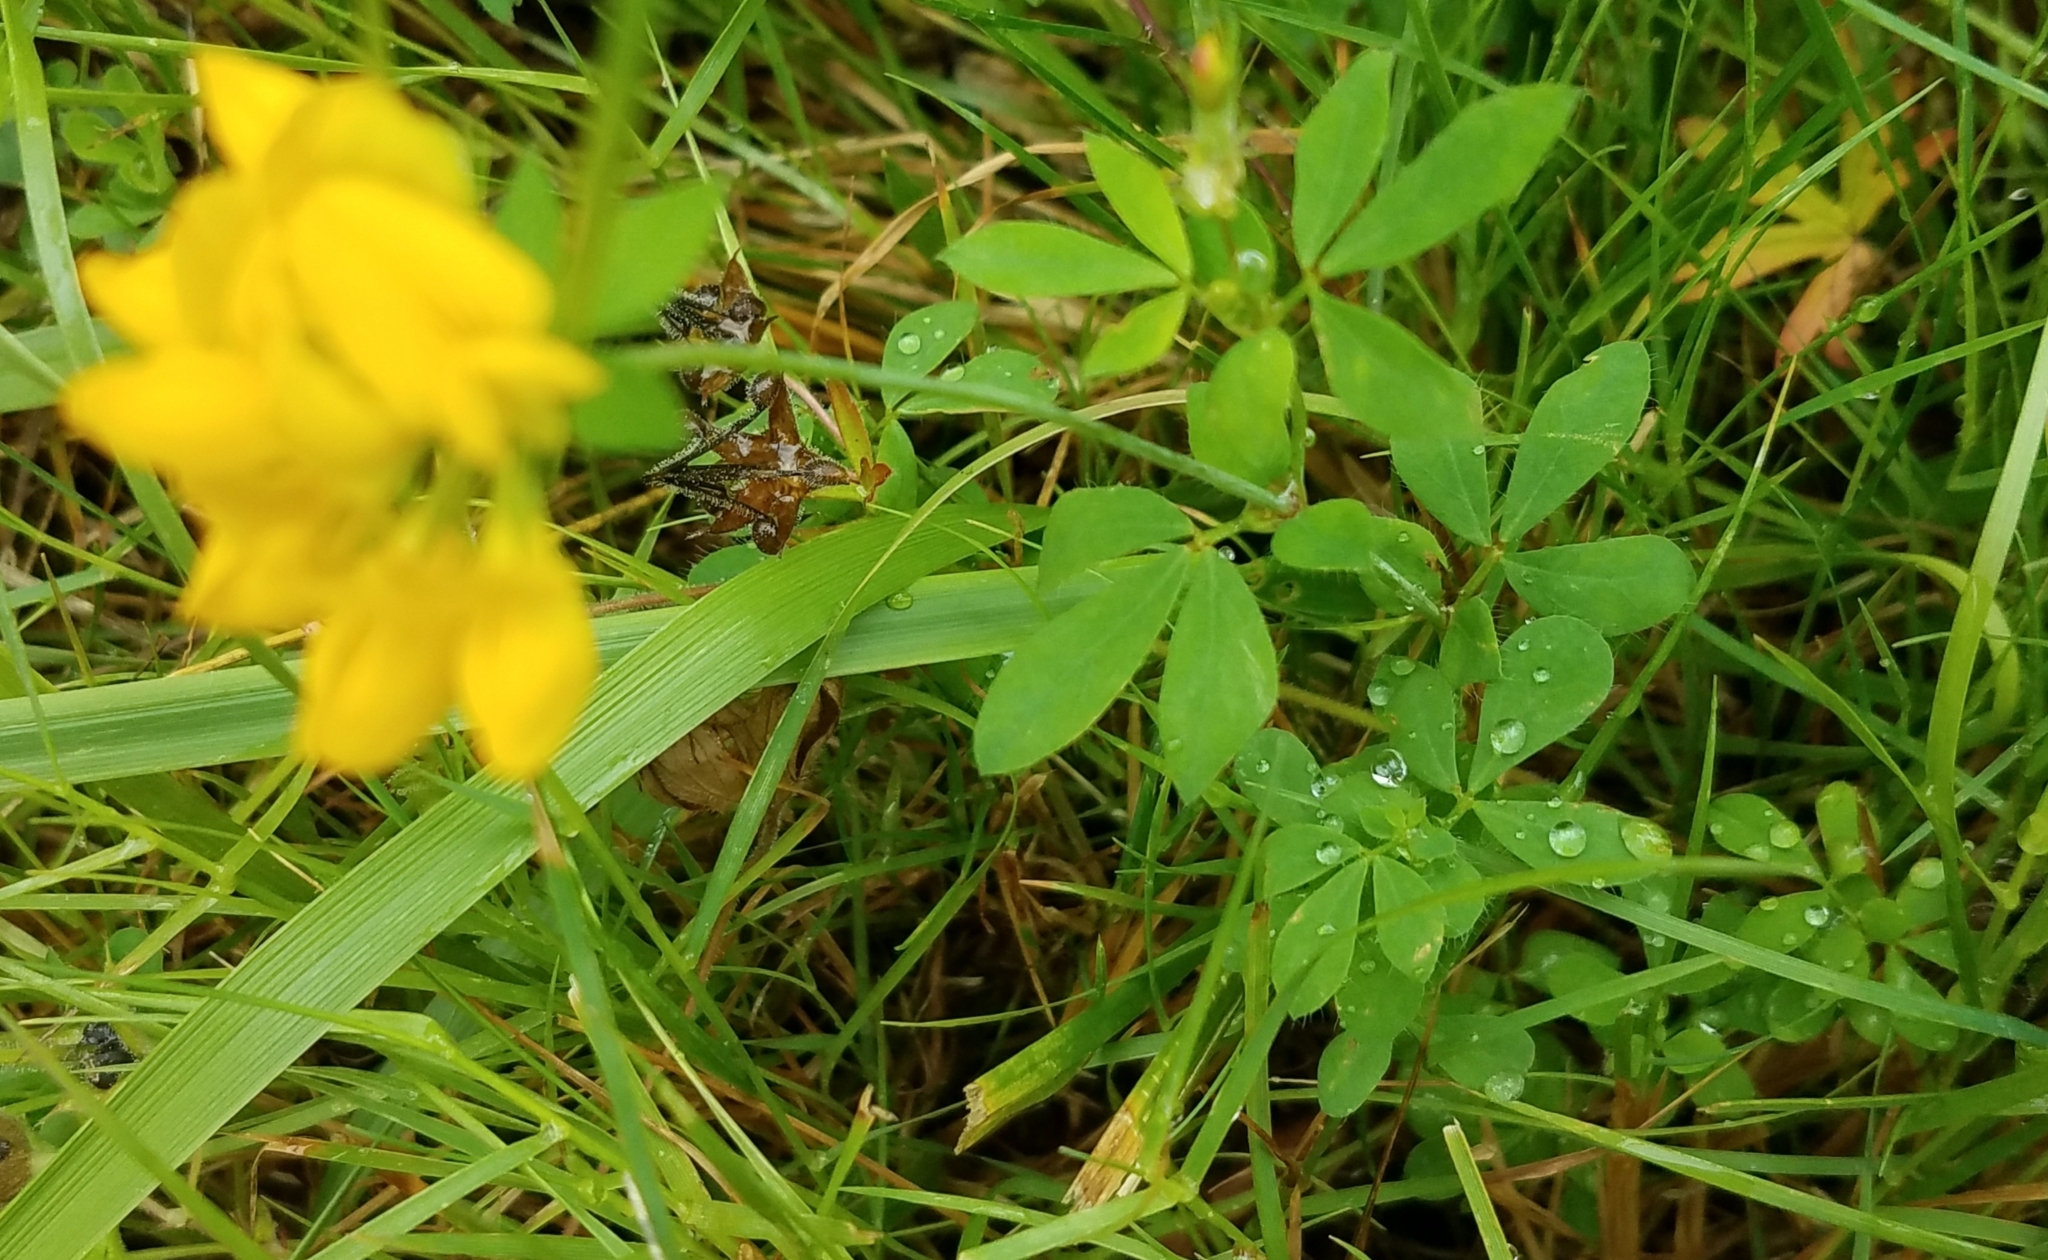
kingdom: Plantae
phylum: Tracheophyta
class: Magnoliopsida
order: Fabales
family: Fabaceae
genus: Lotus
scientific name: Lotus pedunculatus
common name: Greater birdsfoot-trefoil
